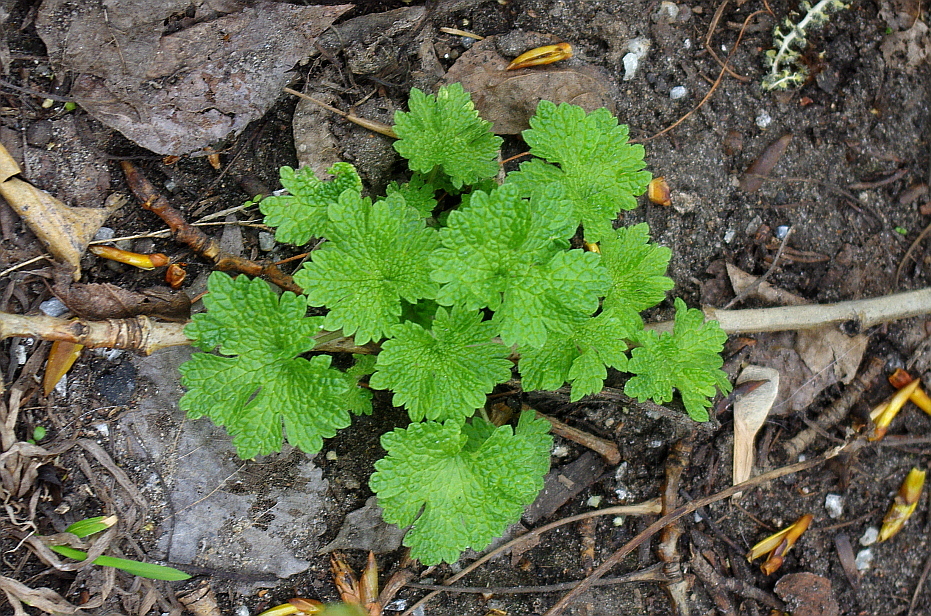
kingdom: Plantae
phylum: Tracheophyta
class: Magnoliopsida
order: Lamiales
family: Lamiaceae
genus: Leonurus
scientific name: Leonurus quinquelobatus
